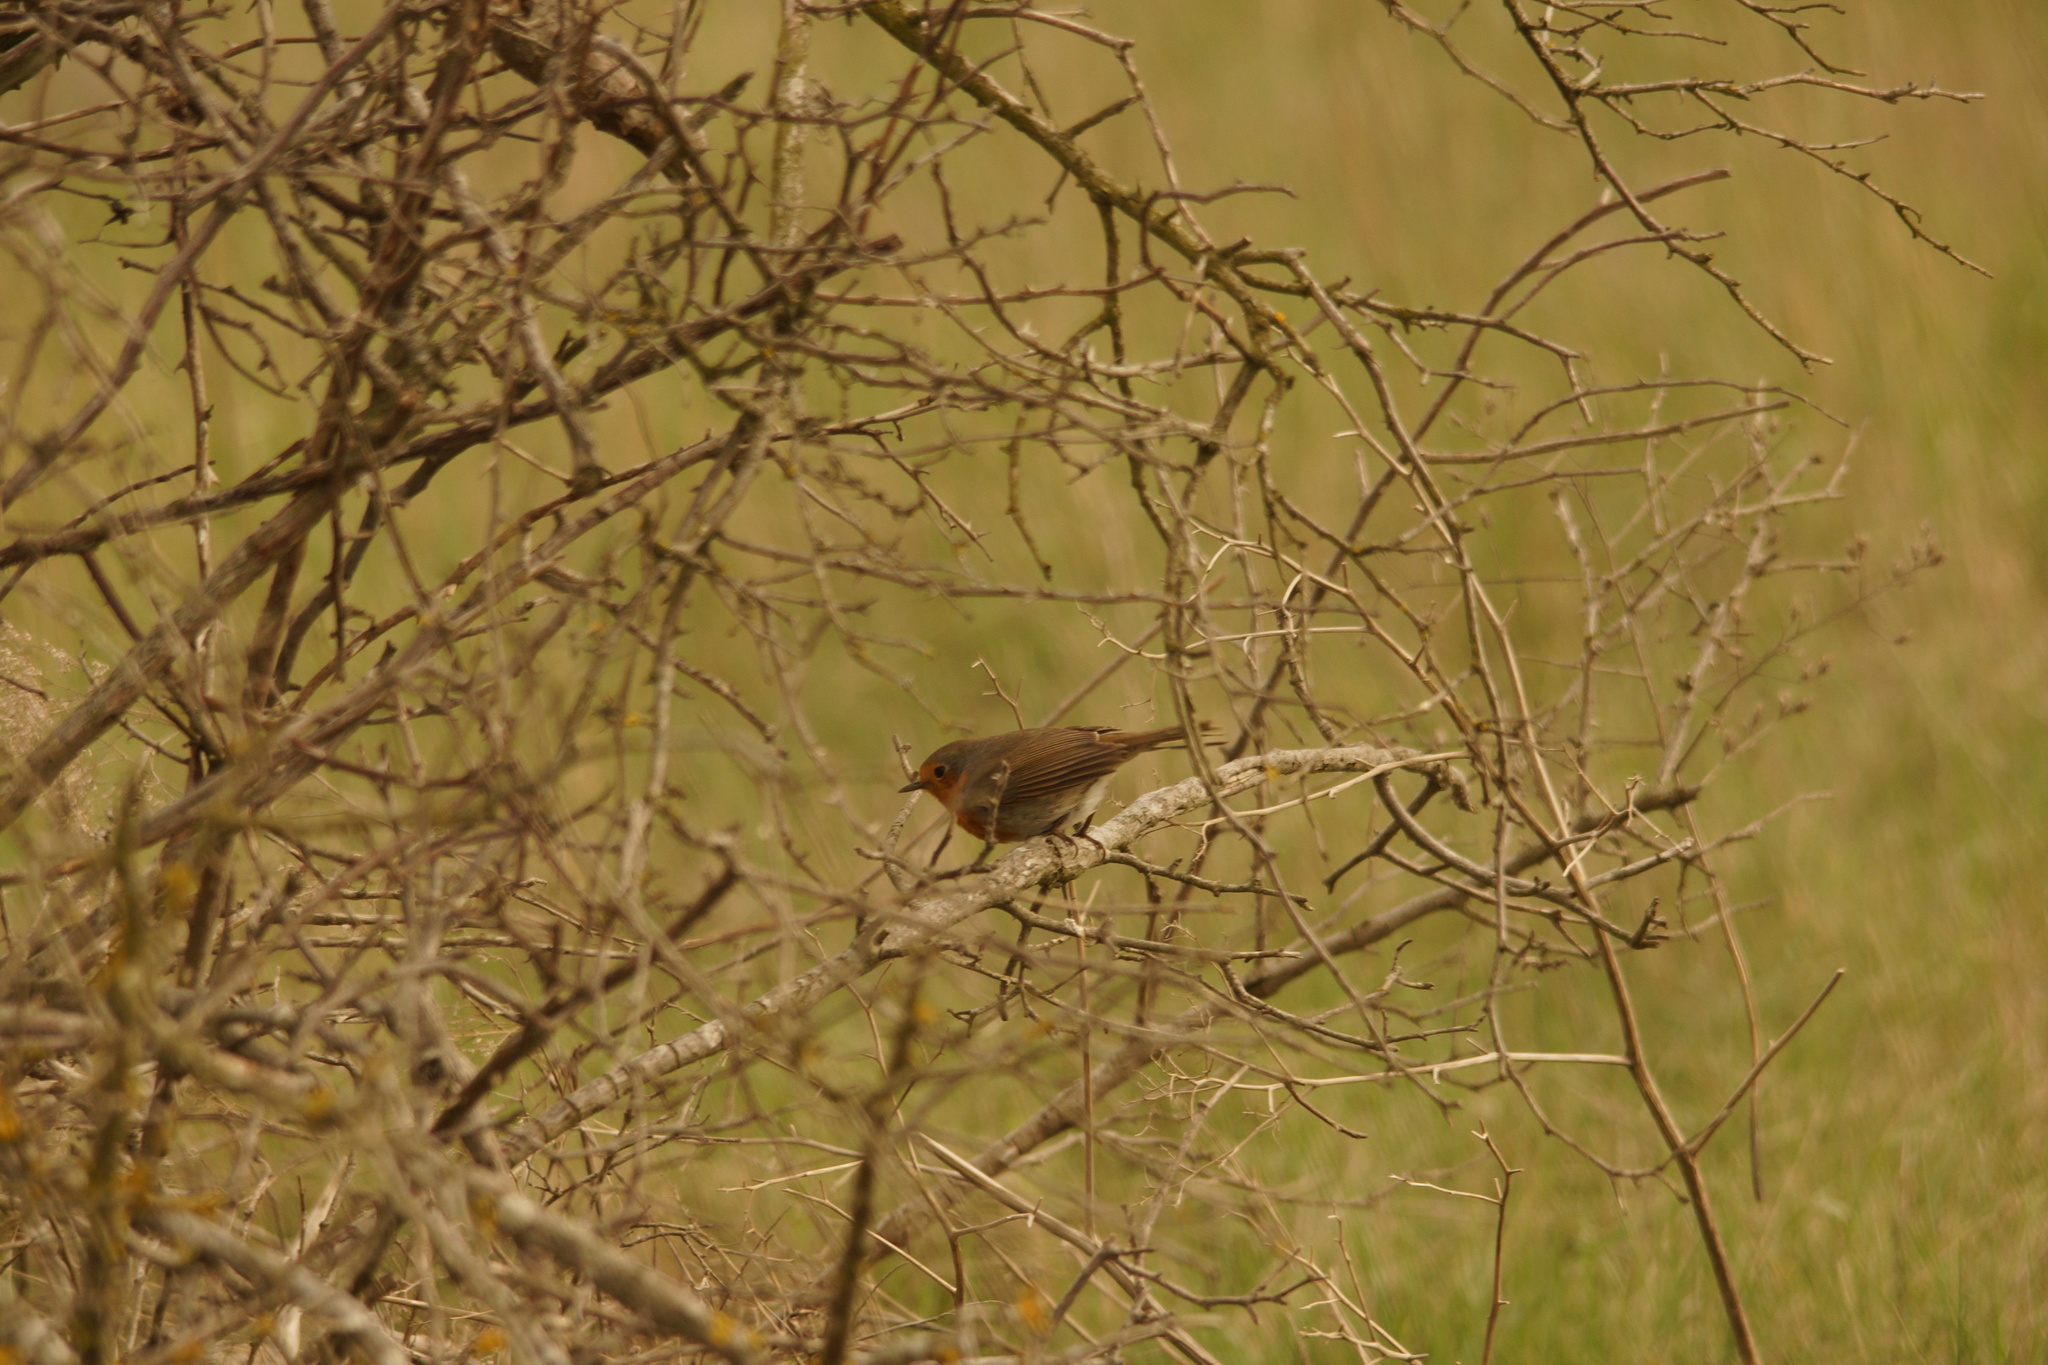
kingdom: Animalia
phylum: Chordata
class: Aves
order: Passeriformes
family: Muscicapidae
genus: Erithacus
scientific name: Erithacus rubecula
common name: European robin
